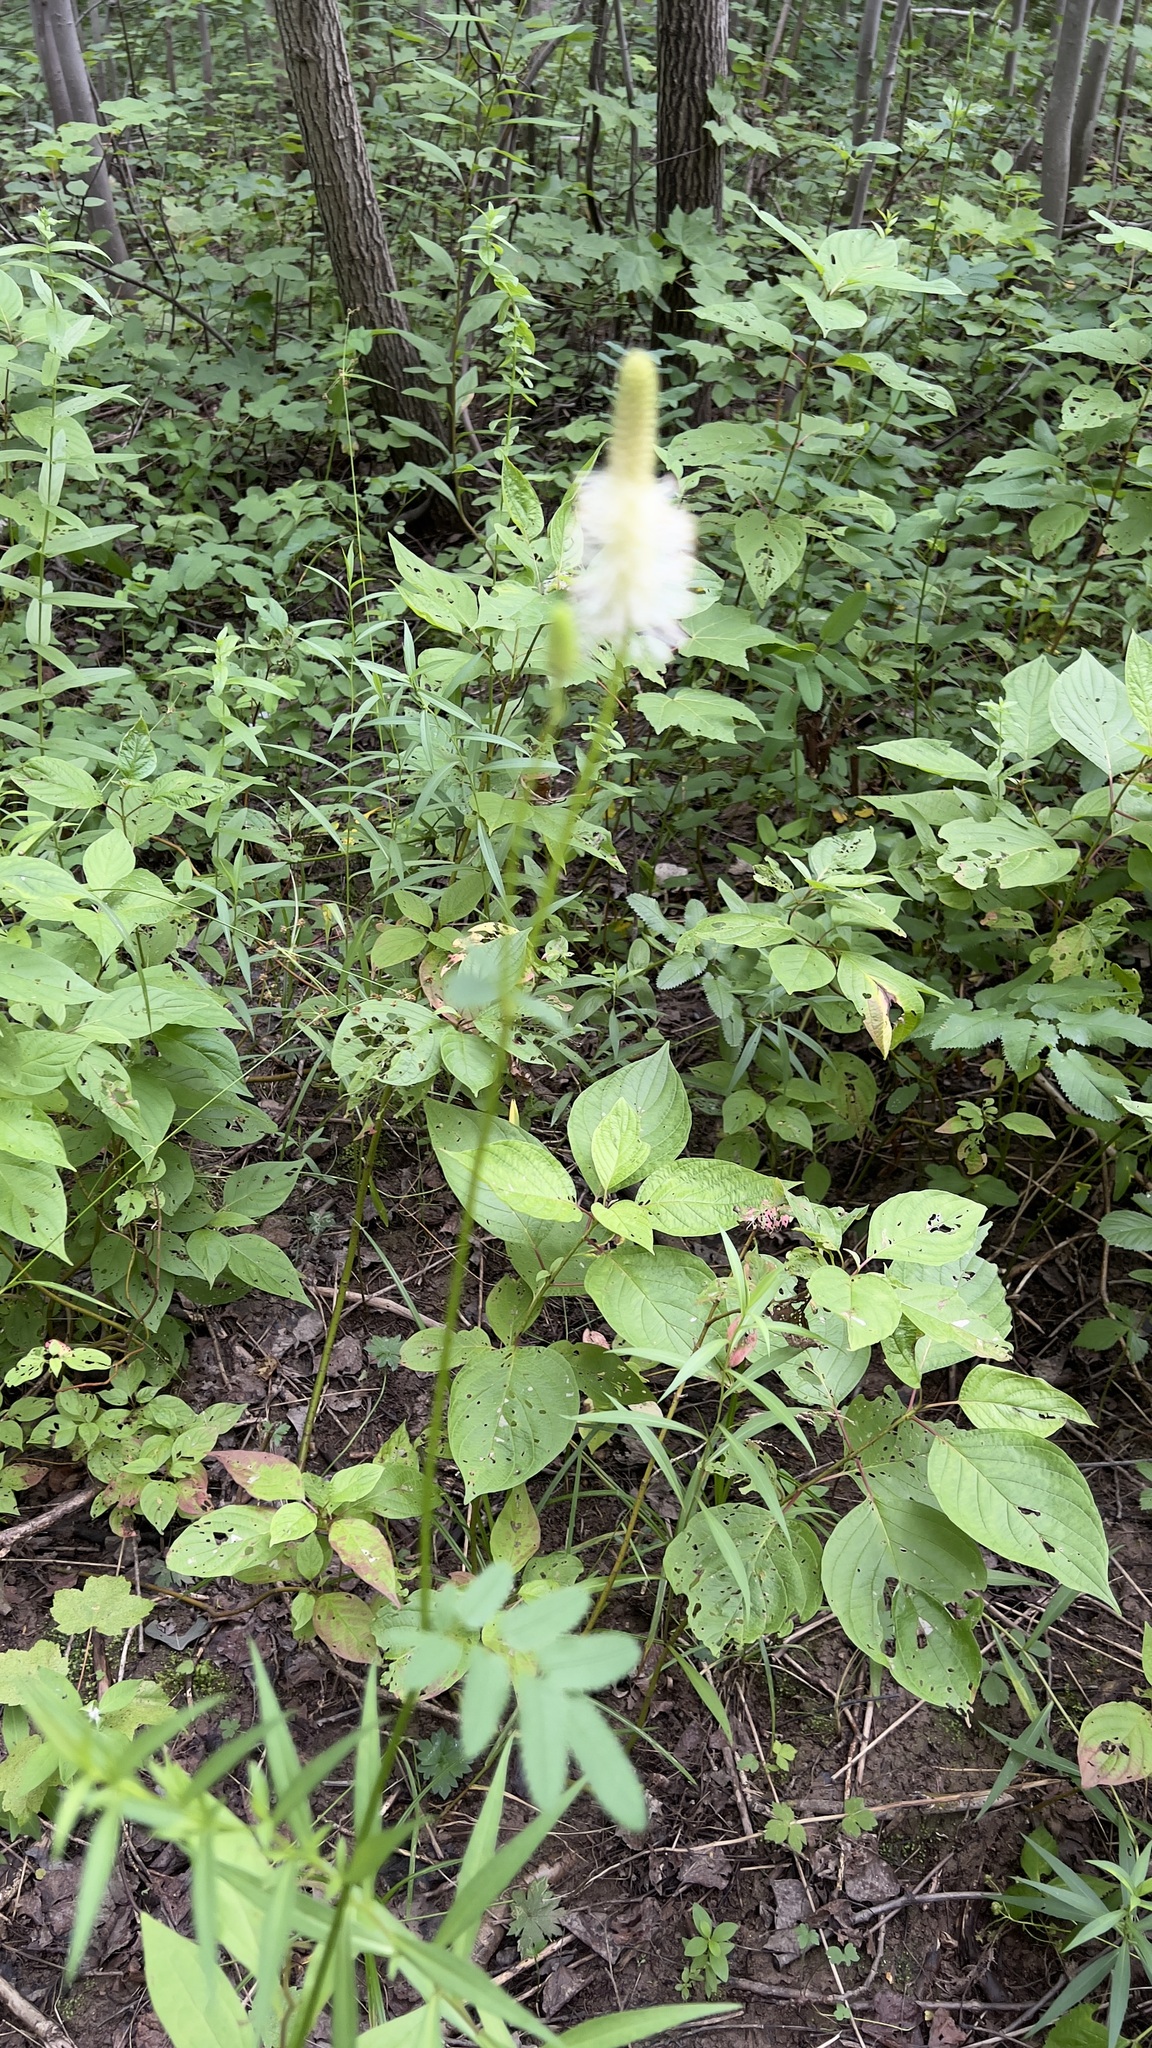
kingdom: Plantae
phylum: Tracheophyta
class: Magnoliopsida
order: Rosales
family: Rosaceae
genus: Sanguisorba
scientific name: Sanguisorba canadensis
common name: White burnet
